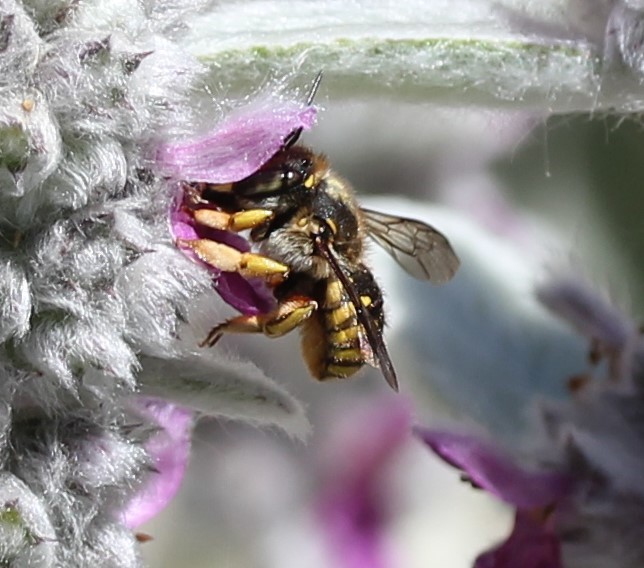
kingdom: Animalia
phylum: Arthropoda
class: Insecta
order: Hymenoptera
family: Megachilidae
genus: Anthidium
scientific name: Anthidium manicatum
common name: Wool carder bee
